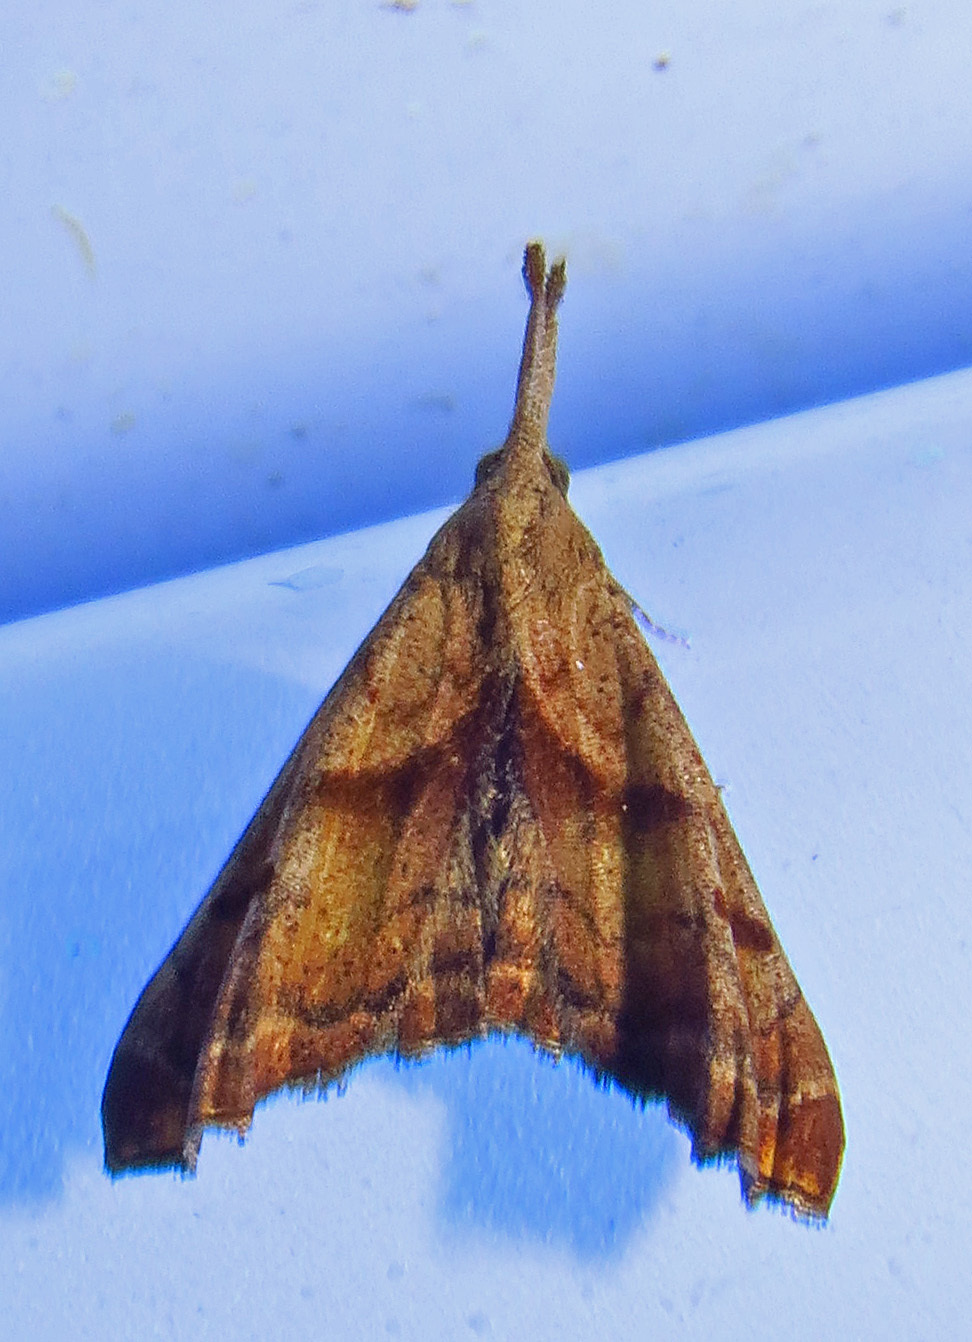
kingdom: Animalia
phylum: Arthropoda
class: Insecta
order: Lepidoptera
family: Erebidae
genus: Palthis
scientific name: Palthis angulalis
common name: Dark-spotted palthis moth
